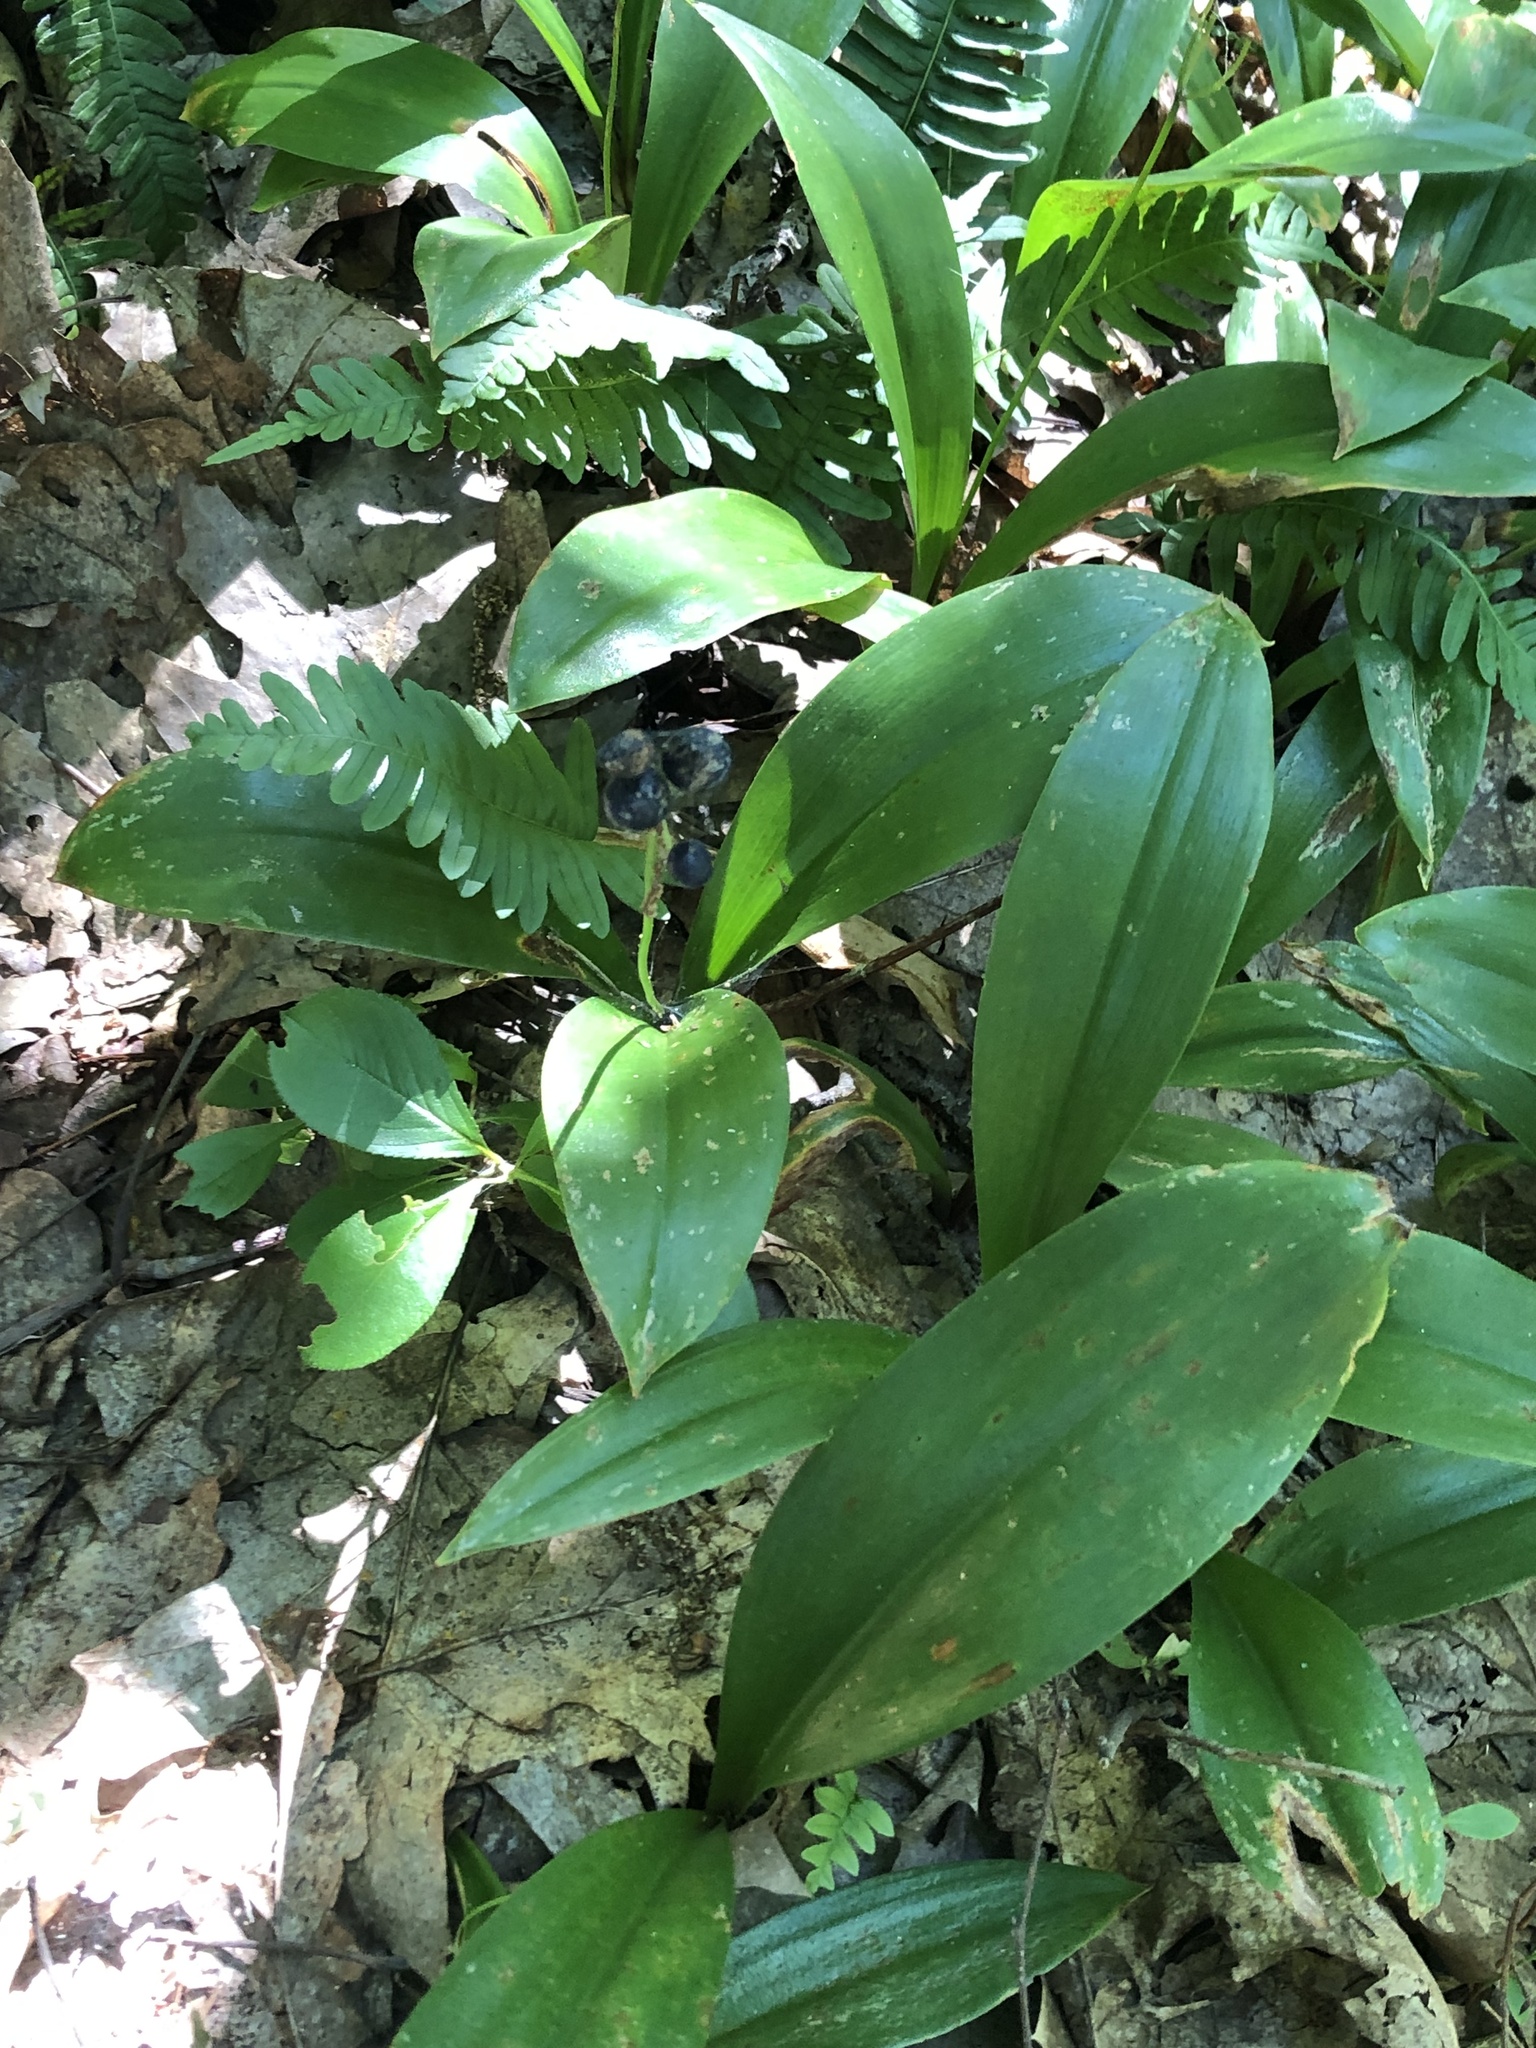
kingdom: Plantae
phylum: Tracheophyta
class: Liliopsida
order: Liliales
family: Liliaceae
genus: Clintonia
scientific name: Clintonia borealis
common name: Yellow clintonia
